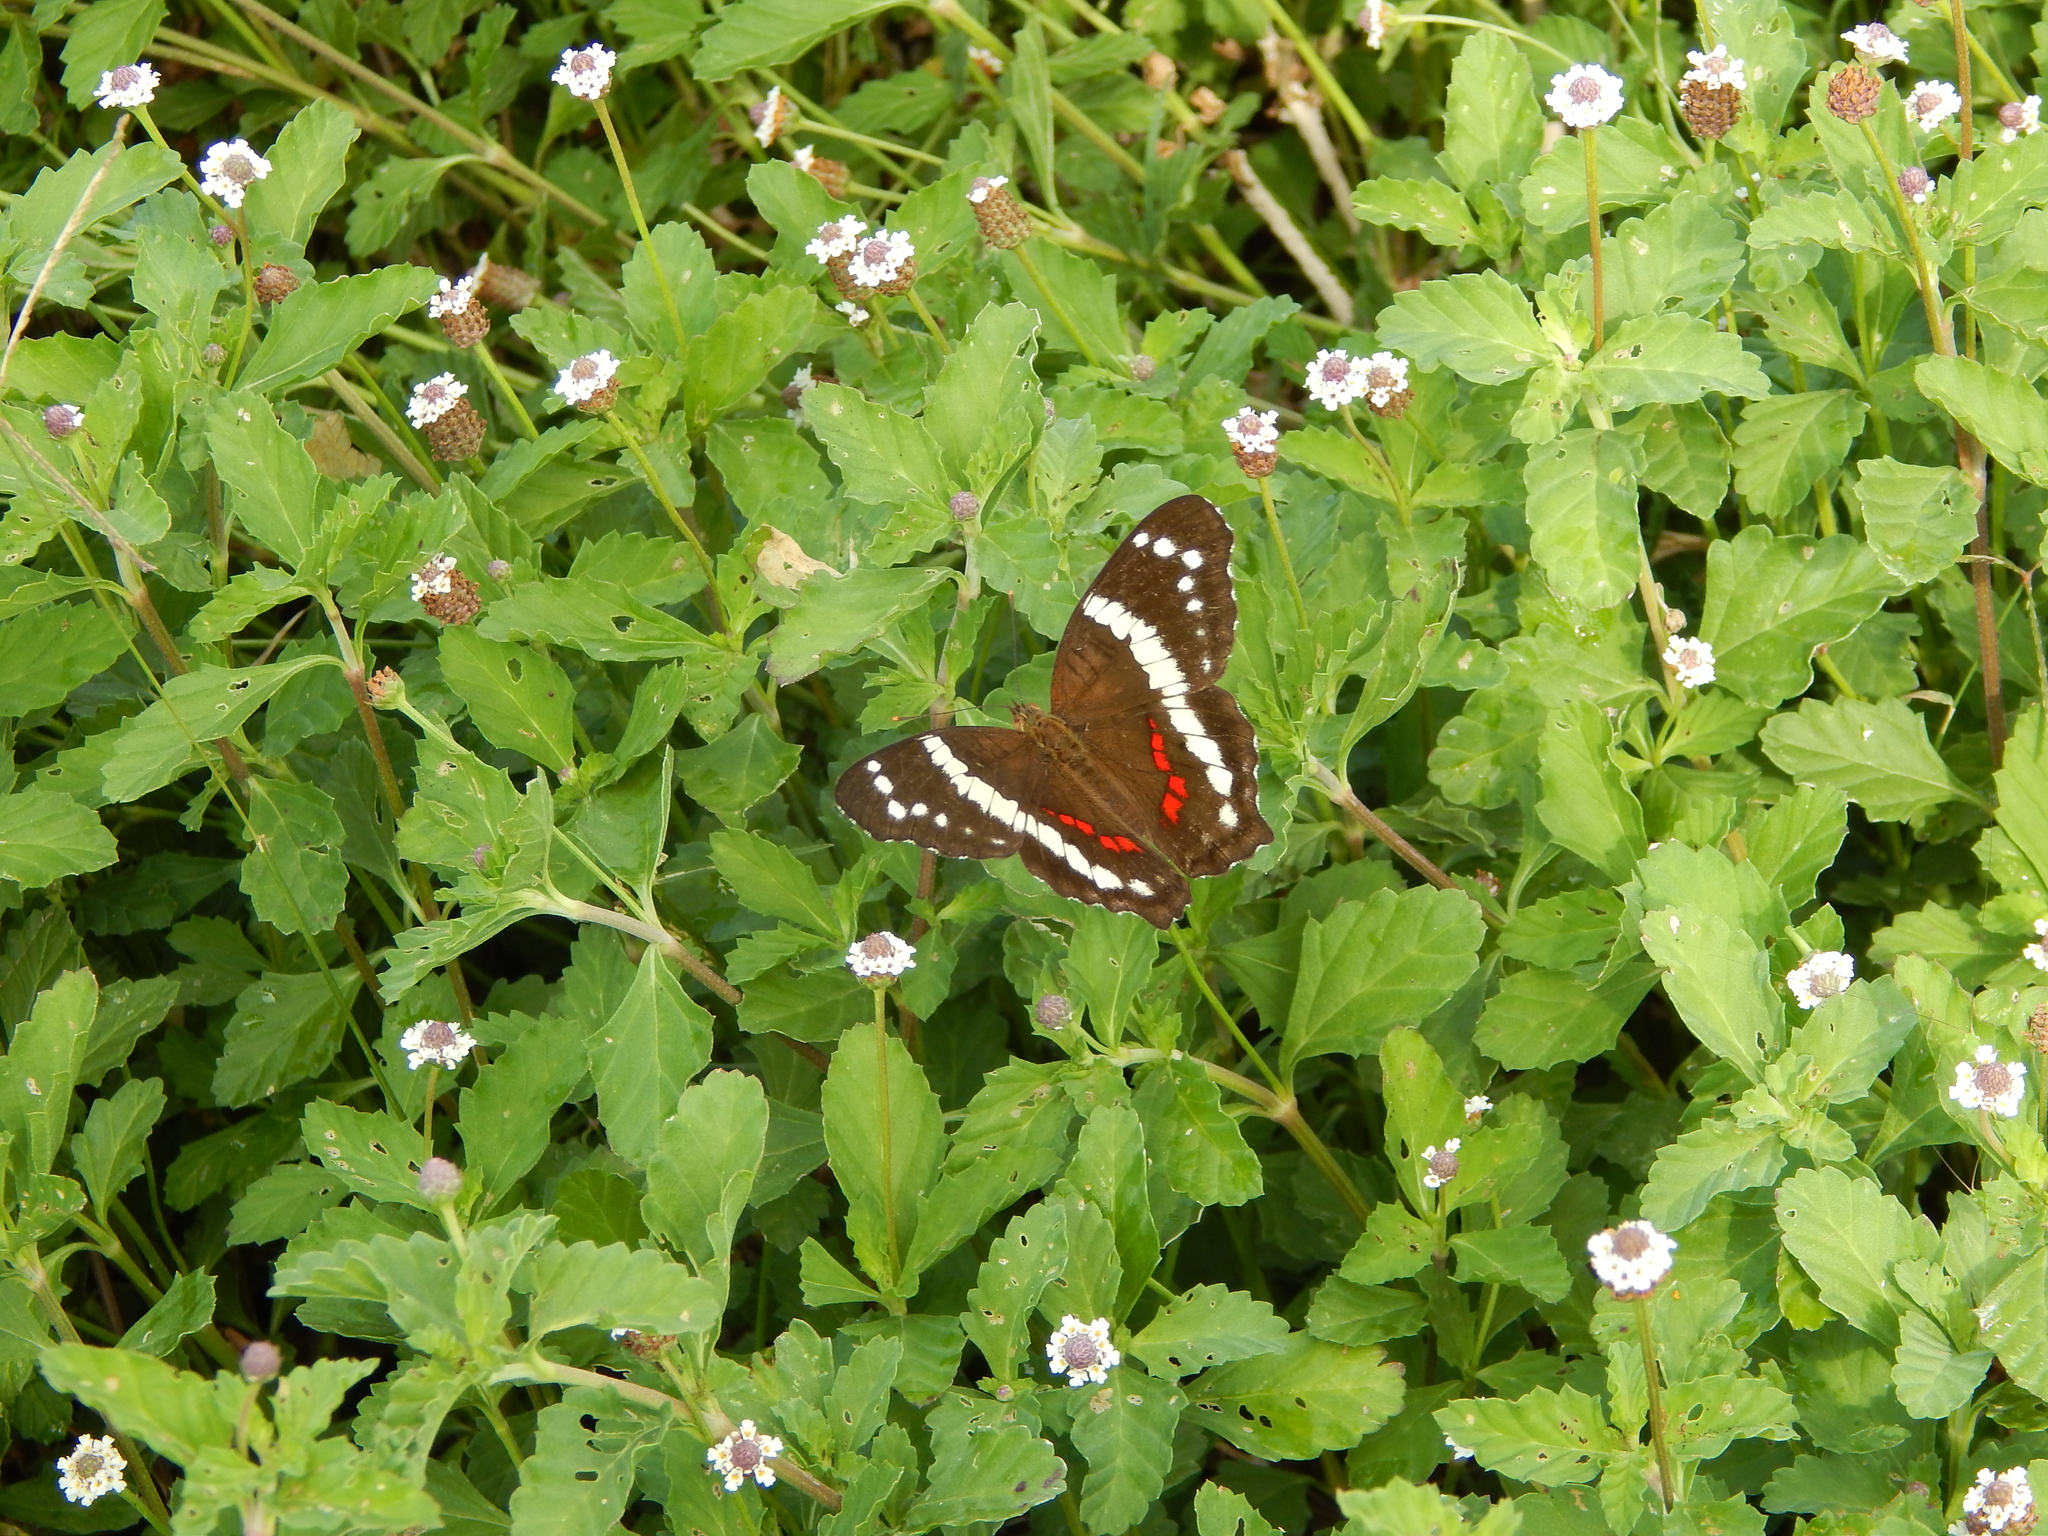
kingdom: Animalia
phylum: Arthropoda
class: Insecta
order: Lepidoptera
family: Nymphalidae
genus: Anartia
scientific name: Anartia fatima
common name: Banded peacock
